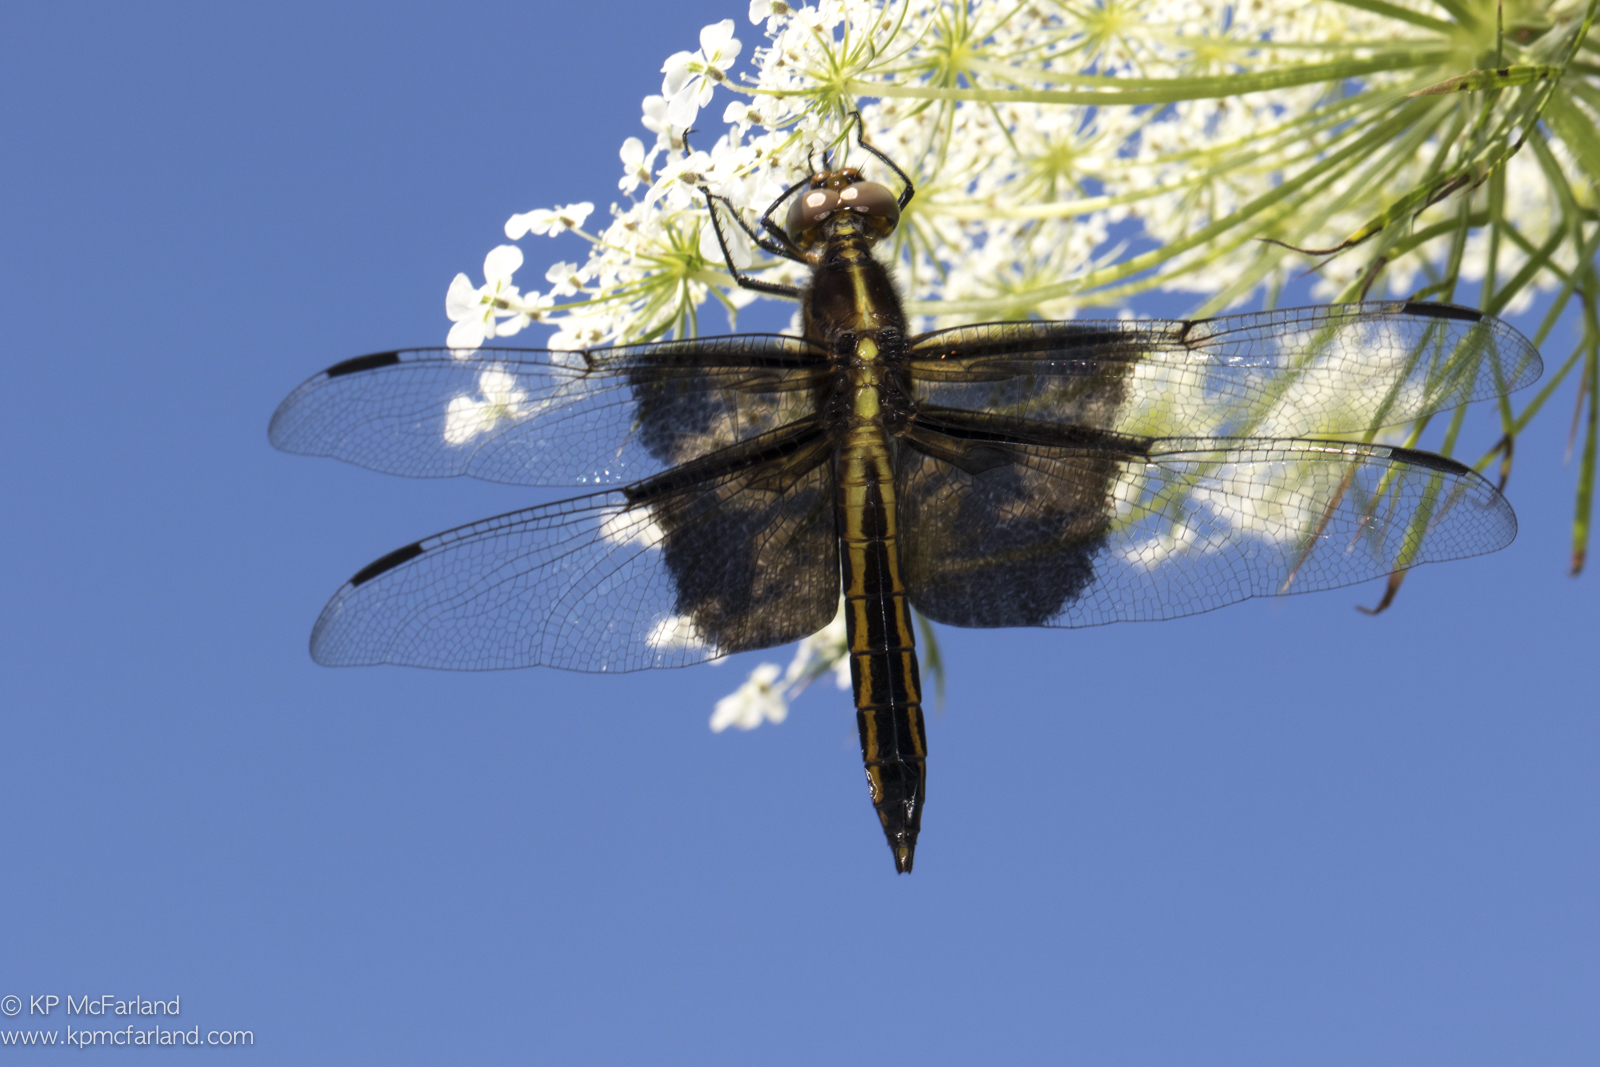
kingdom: Animalia
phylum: Arthropoda
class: Insecta
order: Odonata
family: Libellulidae
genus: Libellula
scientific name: Libellula luctuosa
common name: Widow skimmer
